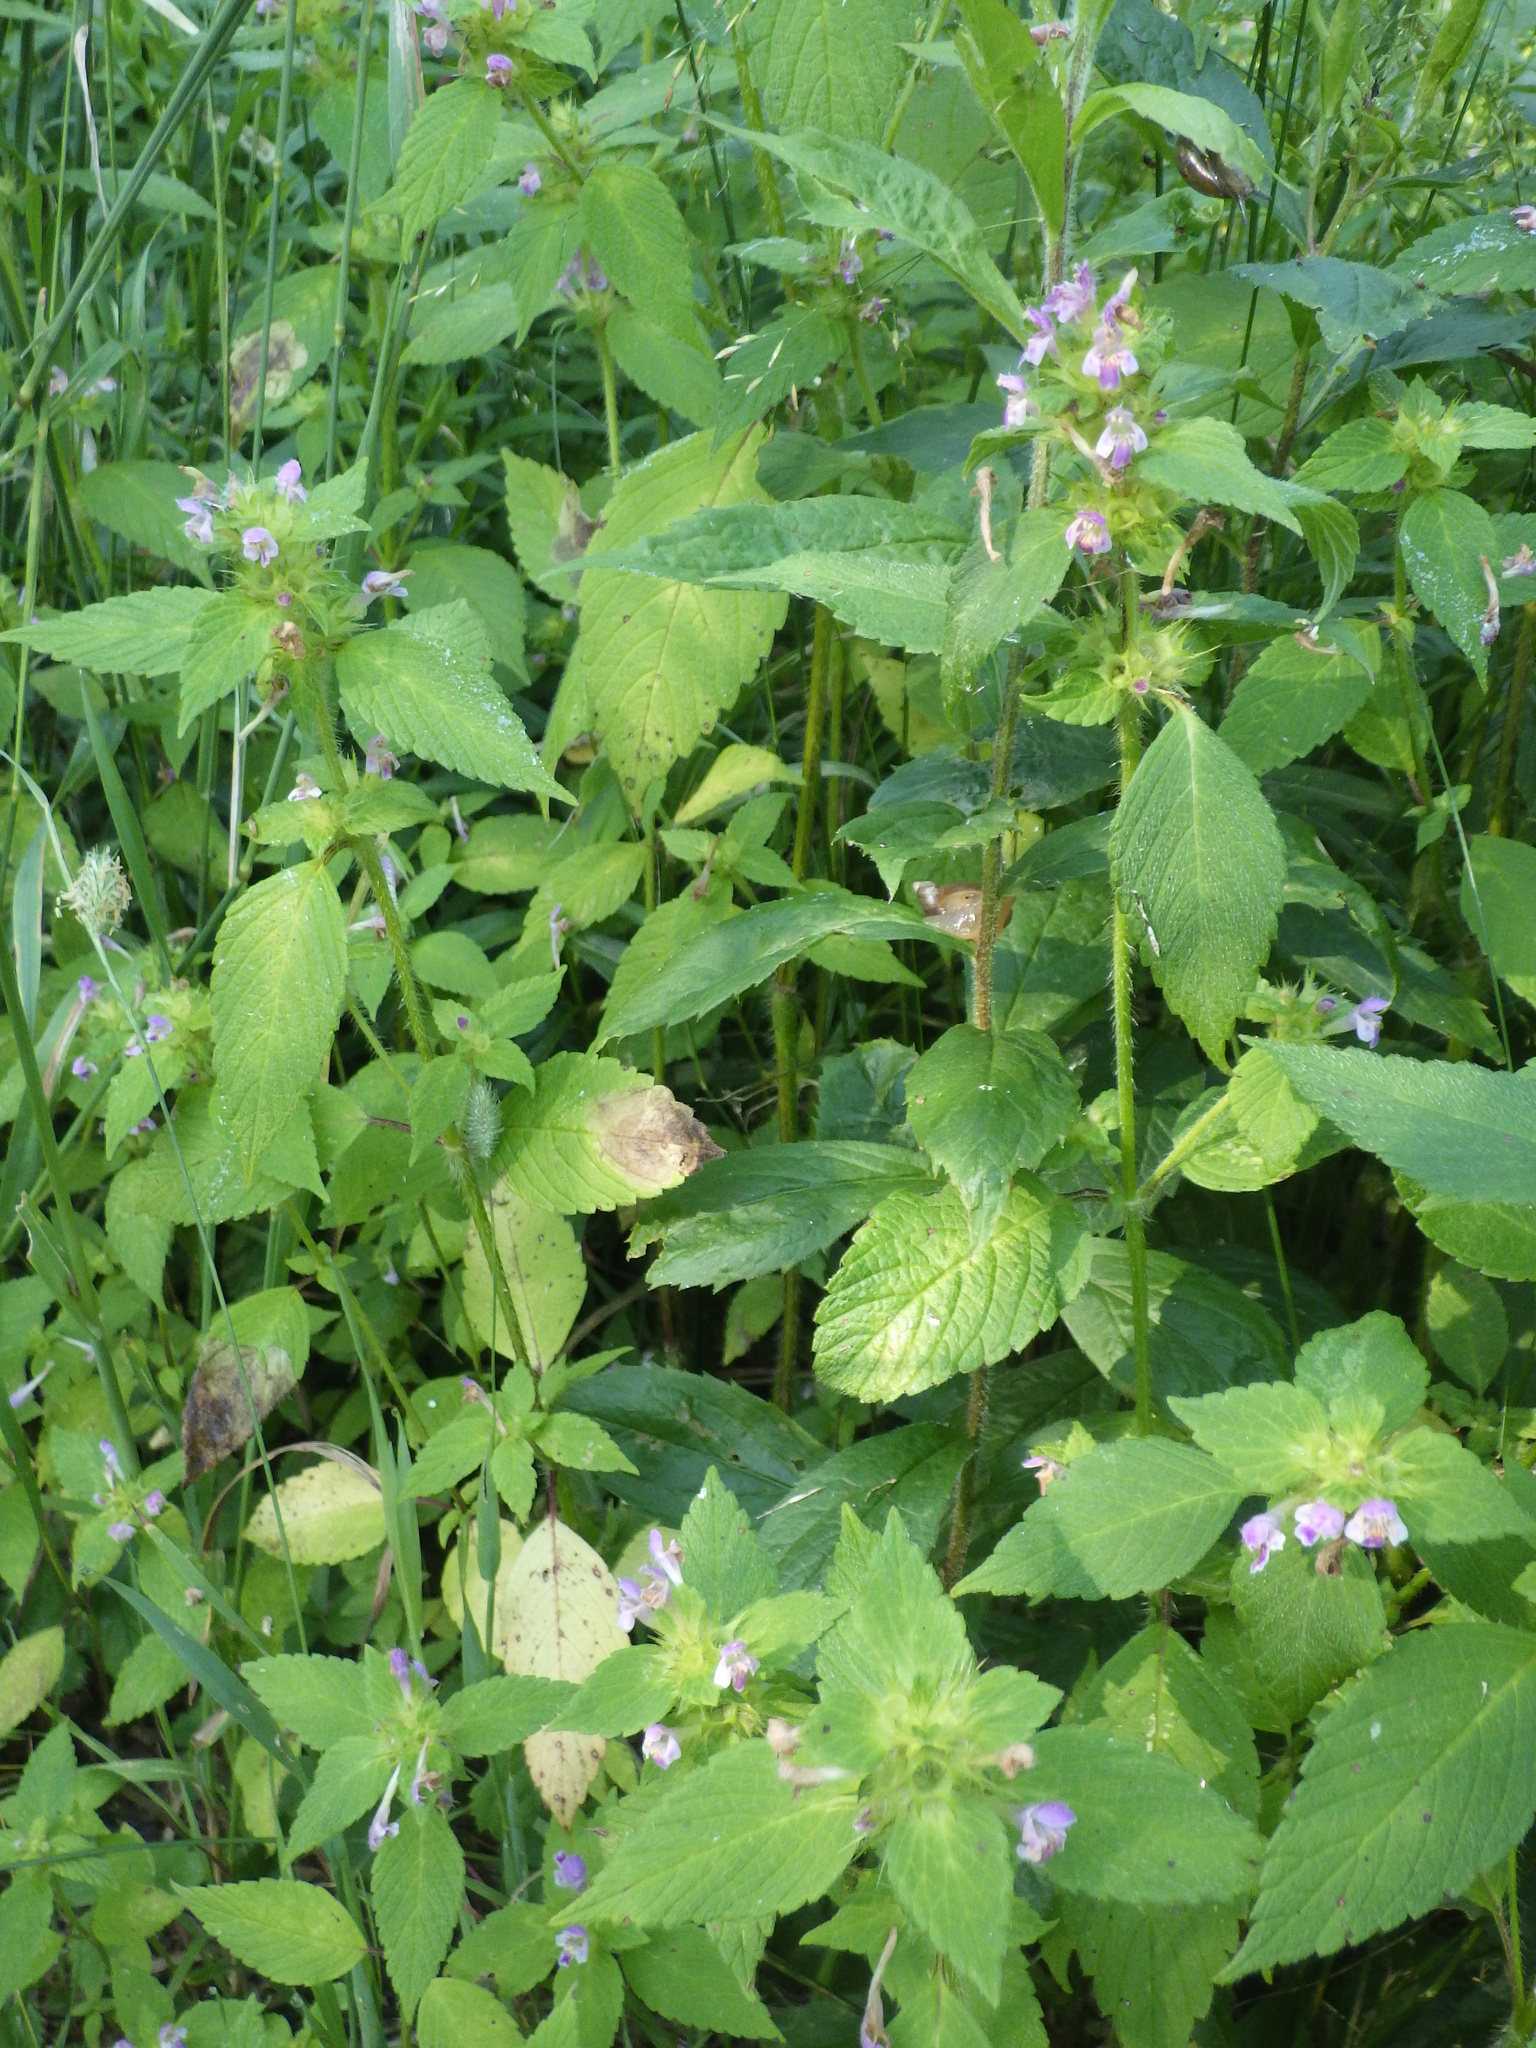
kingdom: Plantae
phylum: Tracheophyta
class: Magnoliopsida
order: Lamiales
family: Lamiaceae
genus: Galeopsis
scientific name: Galeopsis bifida
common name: Bifid hemp-nettle
